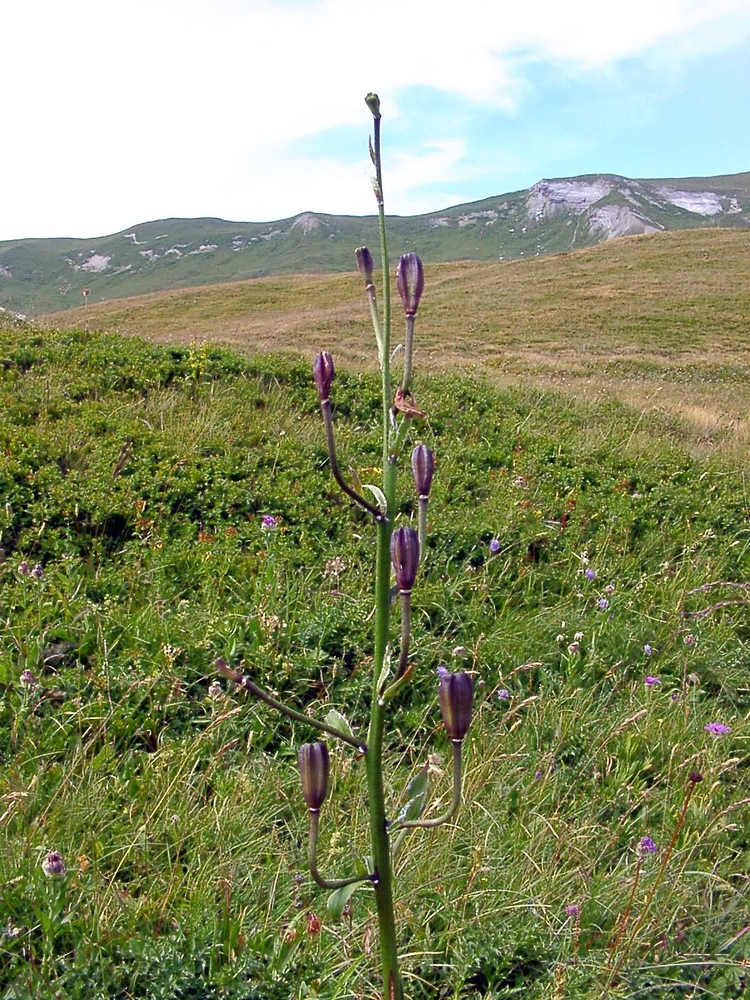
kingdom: Plantae
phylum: Tracheophyta
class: Liliopsida
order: Liliales
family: Liliaceae
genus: Lilium
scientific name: Lilium martagon
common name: Martagon lily
